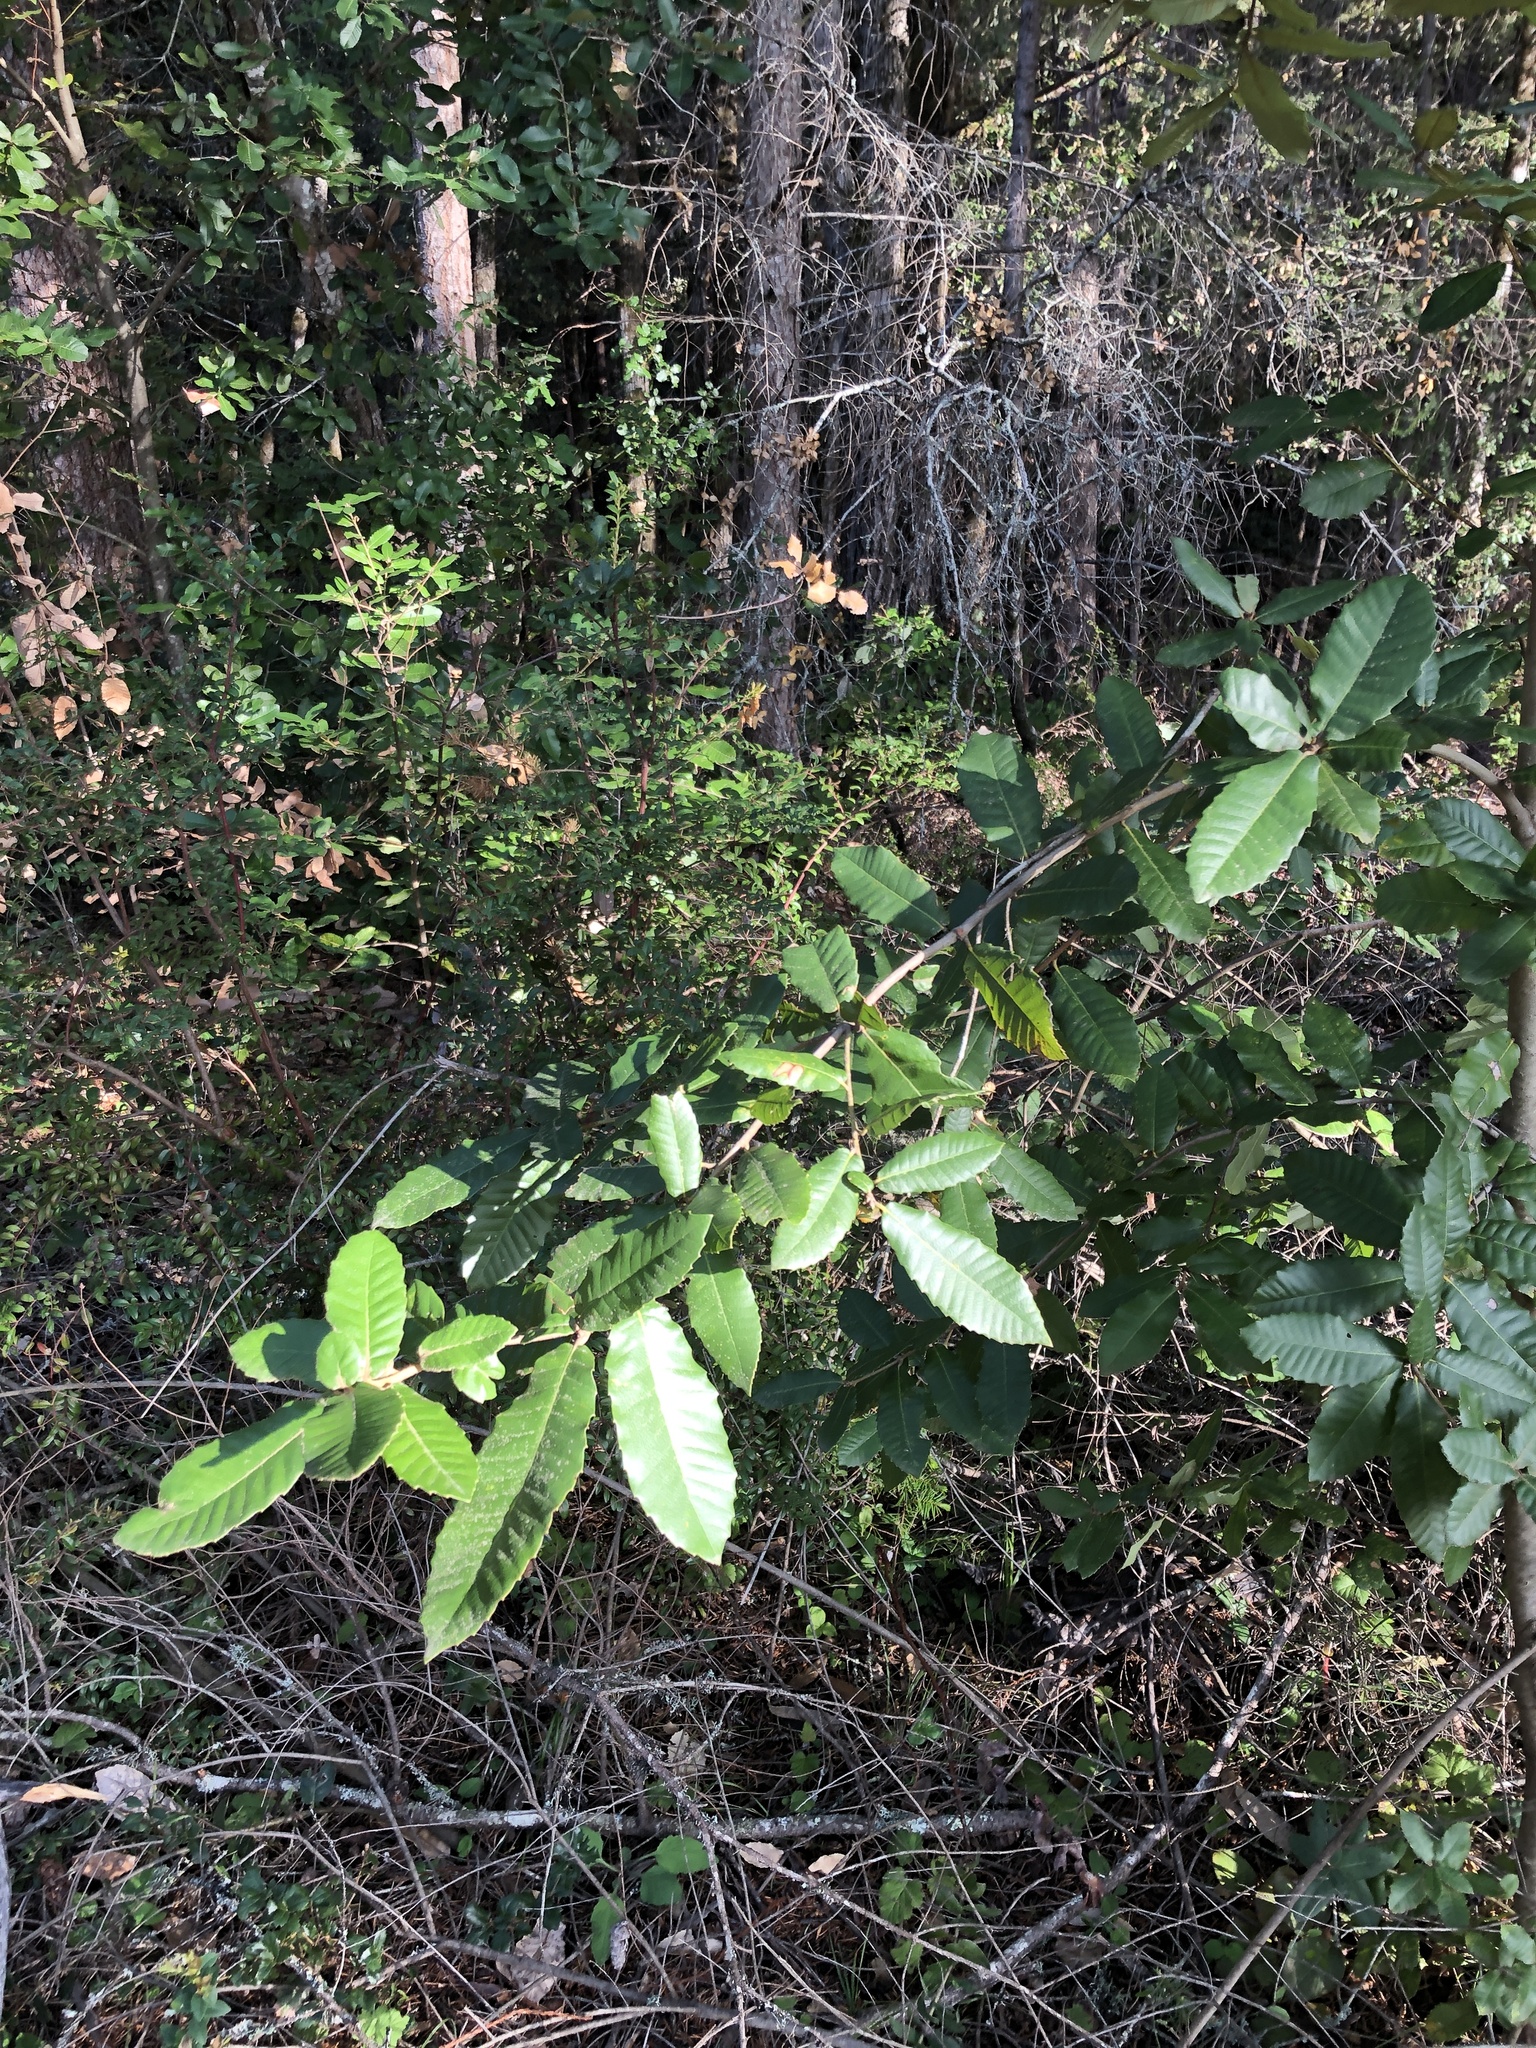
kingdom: Plantae
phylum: Tracheophyta
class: Magnoliopsida
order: Fagales
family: Fagaceae
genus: Notholithocarpus
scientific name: Notholithocarpus densiflorus
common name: Tan bark oak
